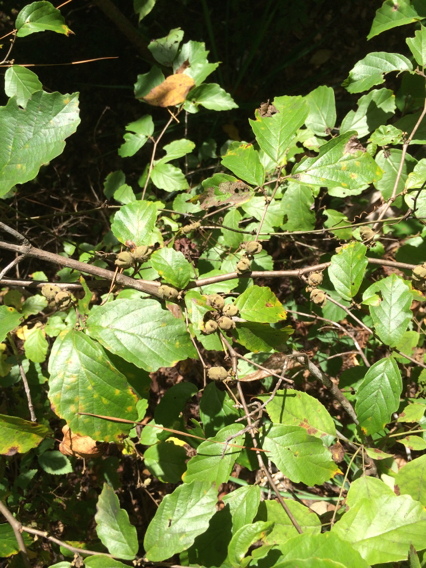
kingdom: Plantae
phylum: Tracheophyta
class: Magnoliopsida
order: Saxifragales
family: Hamamelidaceae
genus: Hamamelis
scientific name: Hamamelis virginiana
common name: Witch-hazel
